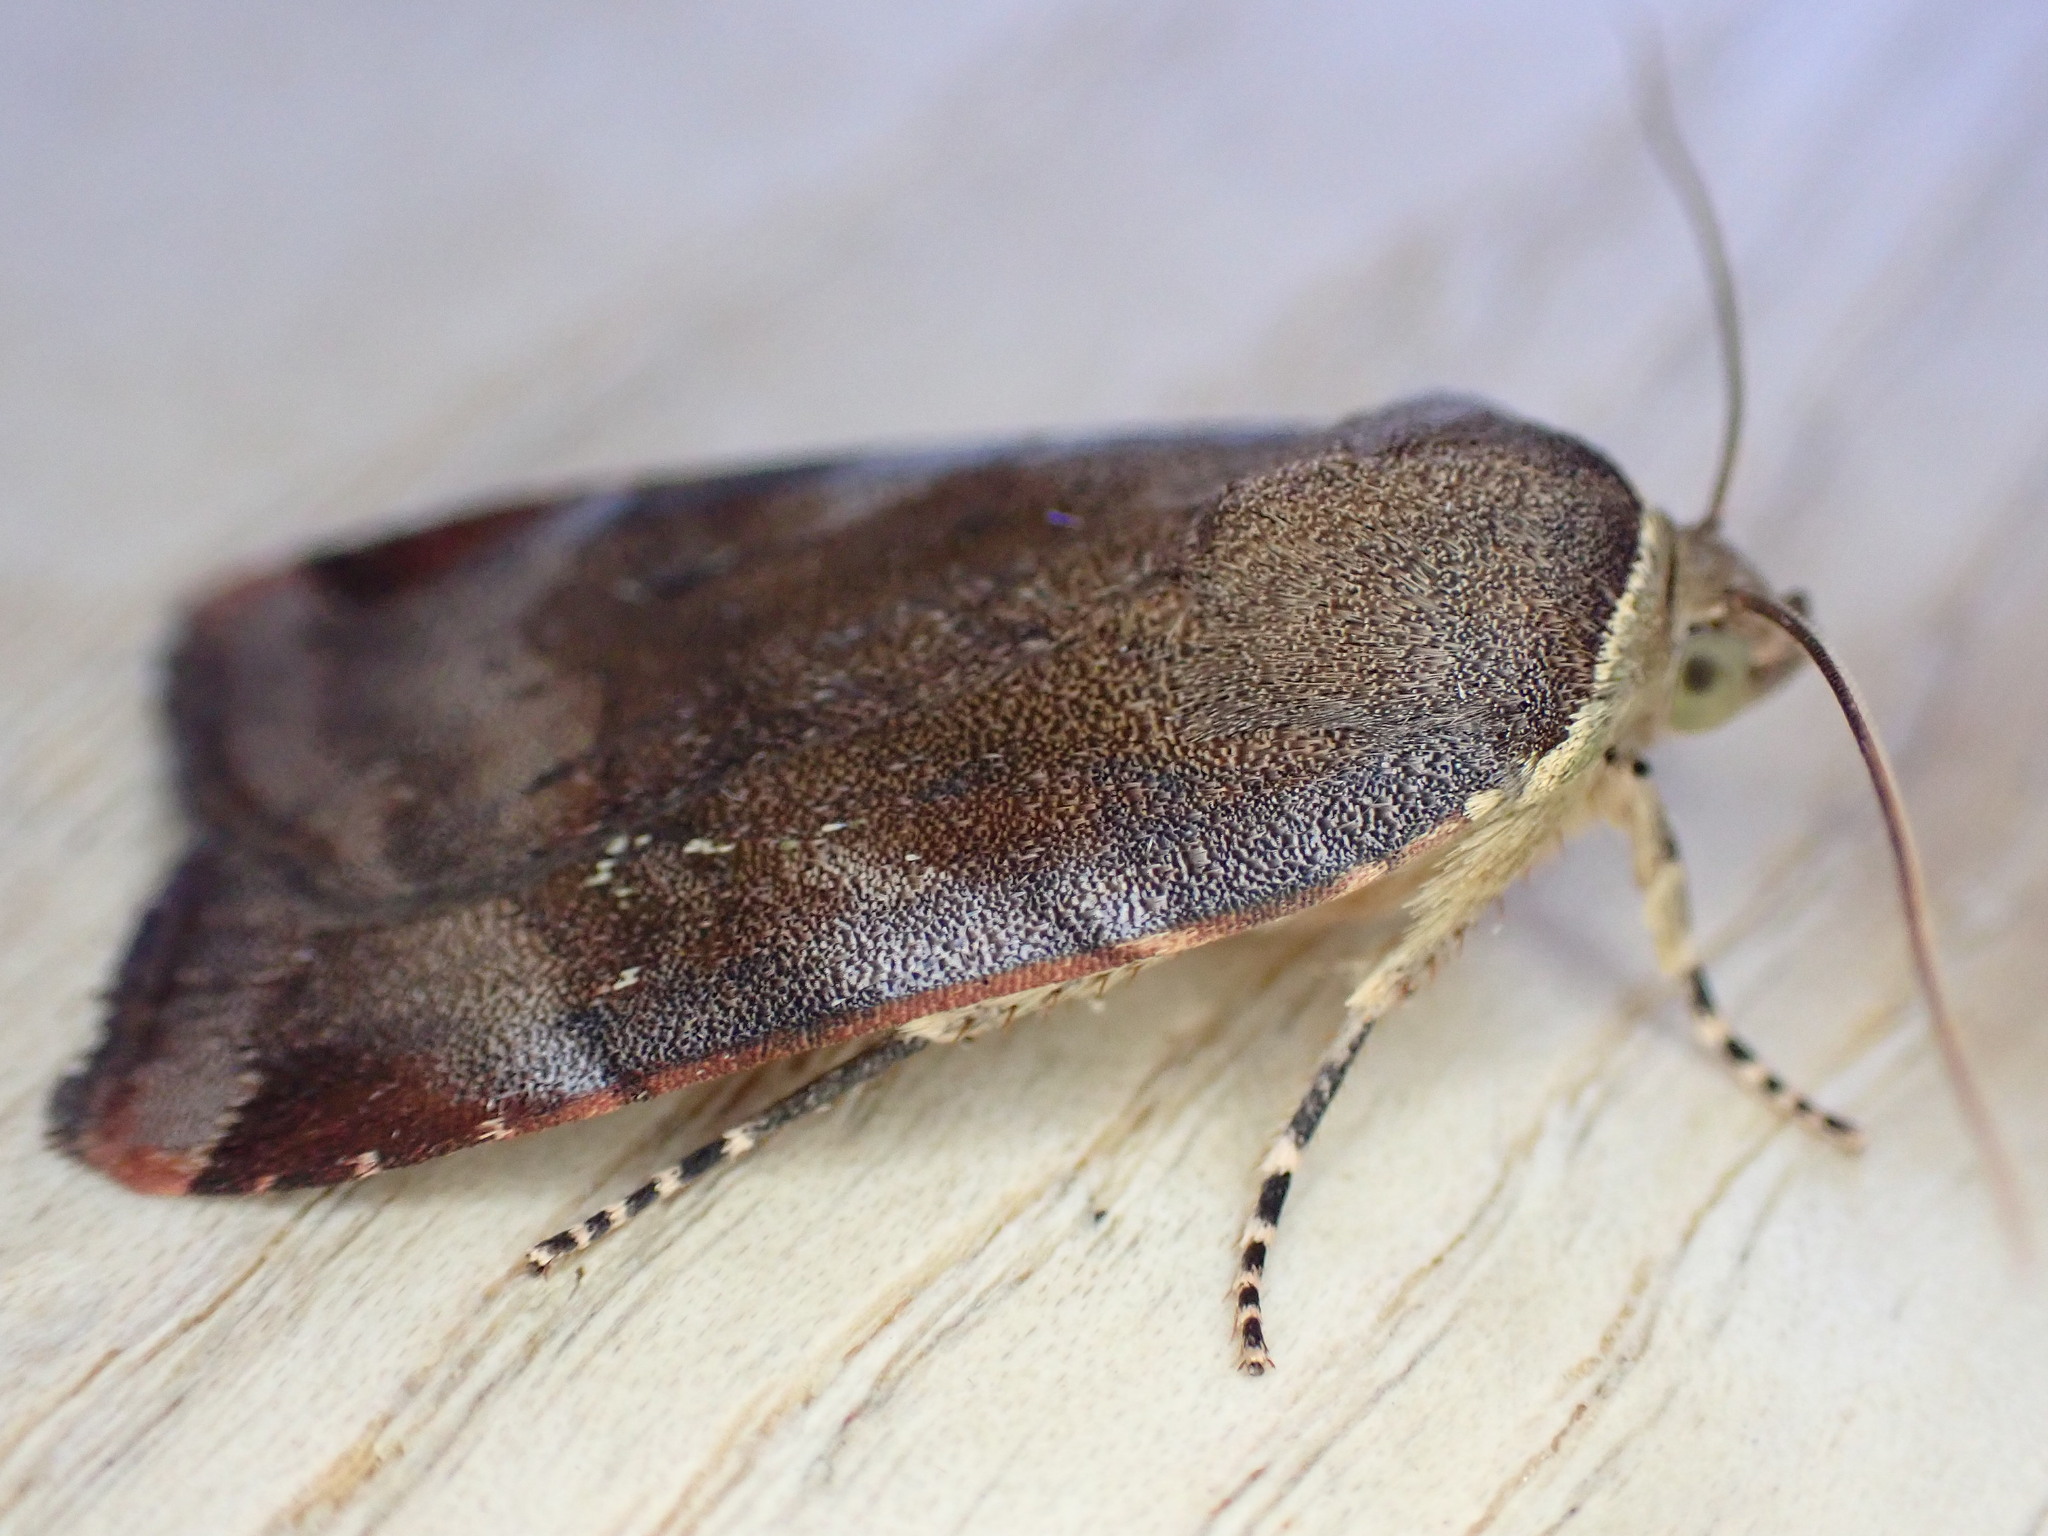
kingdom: Animalia
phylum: Arthropoda
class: Insecta
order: Lepidoptera
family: Noctuidae
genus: Noctua
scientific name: Noctua janthe
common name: Lesser broad-bordered yellow underwing
